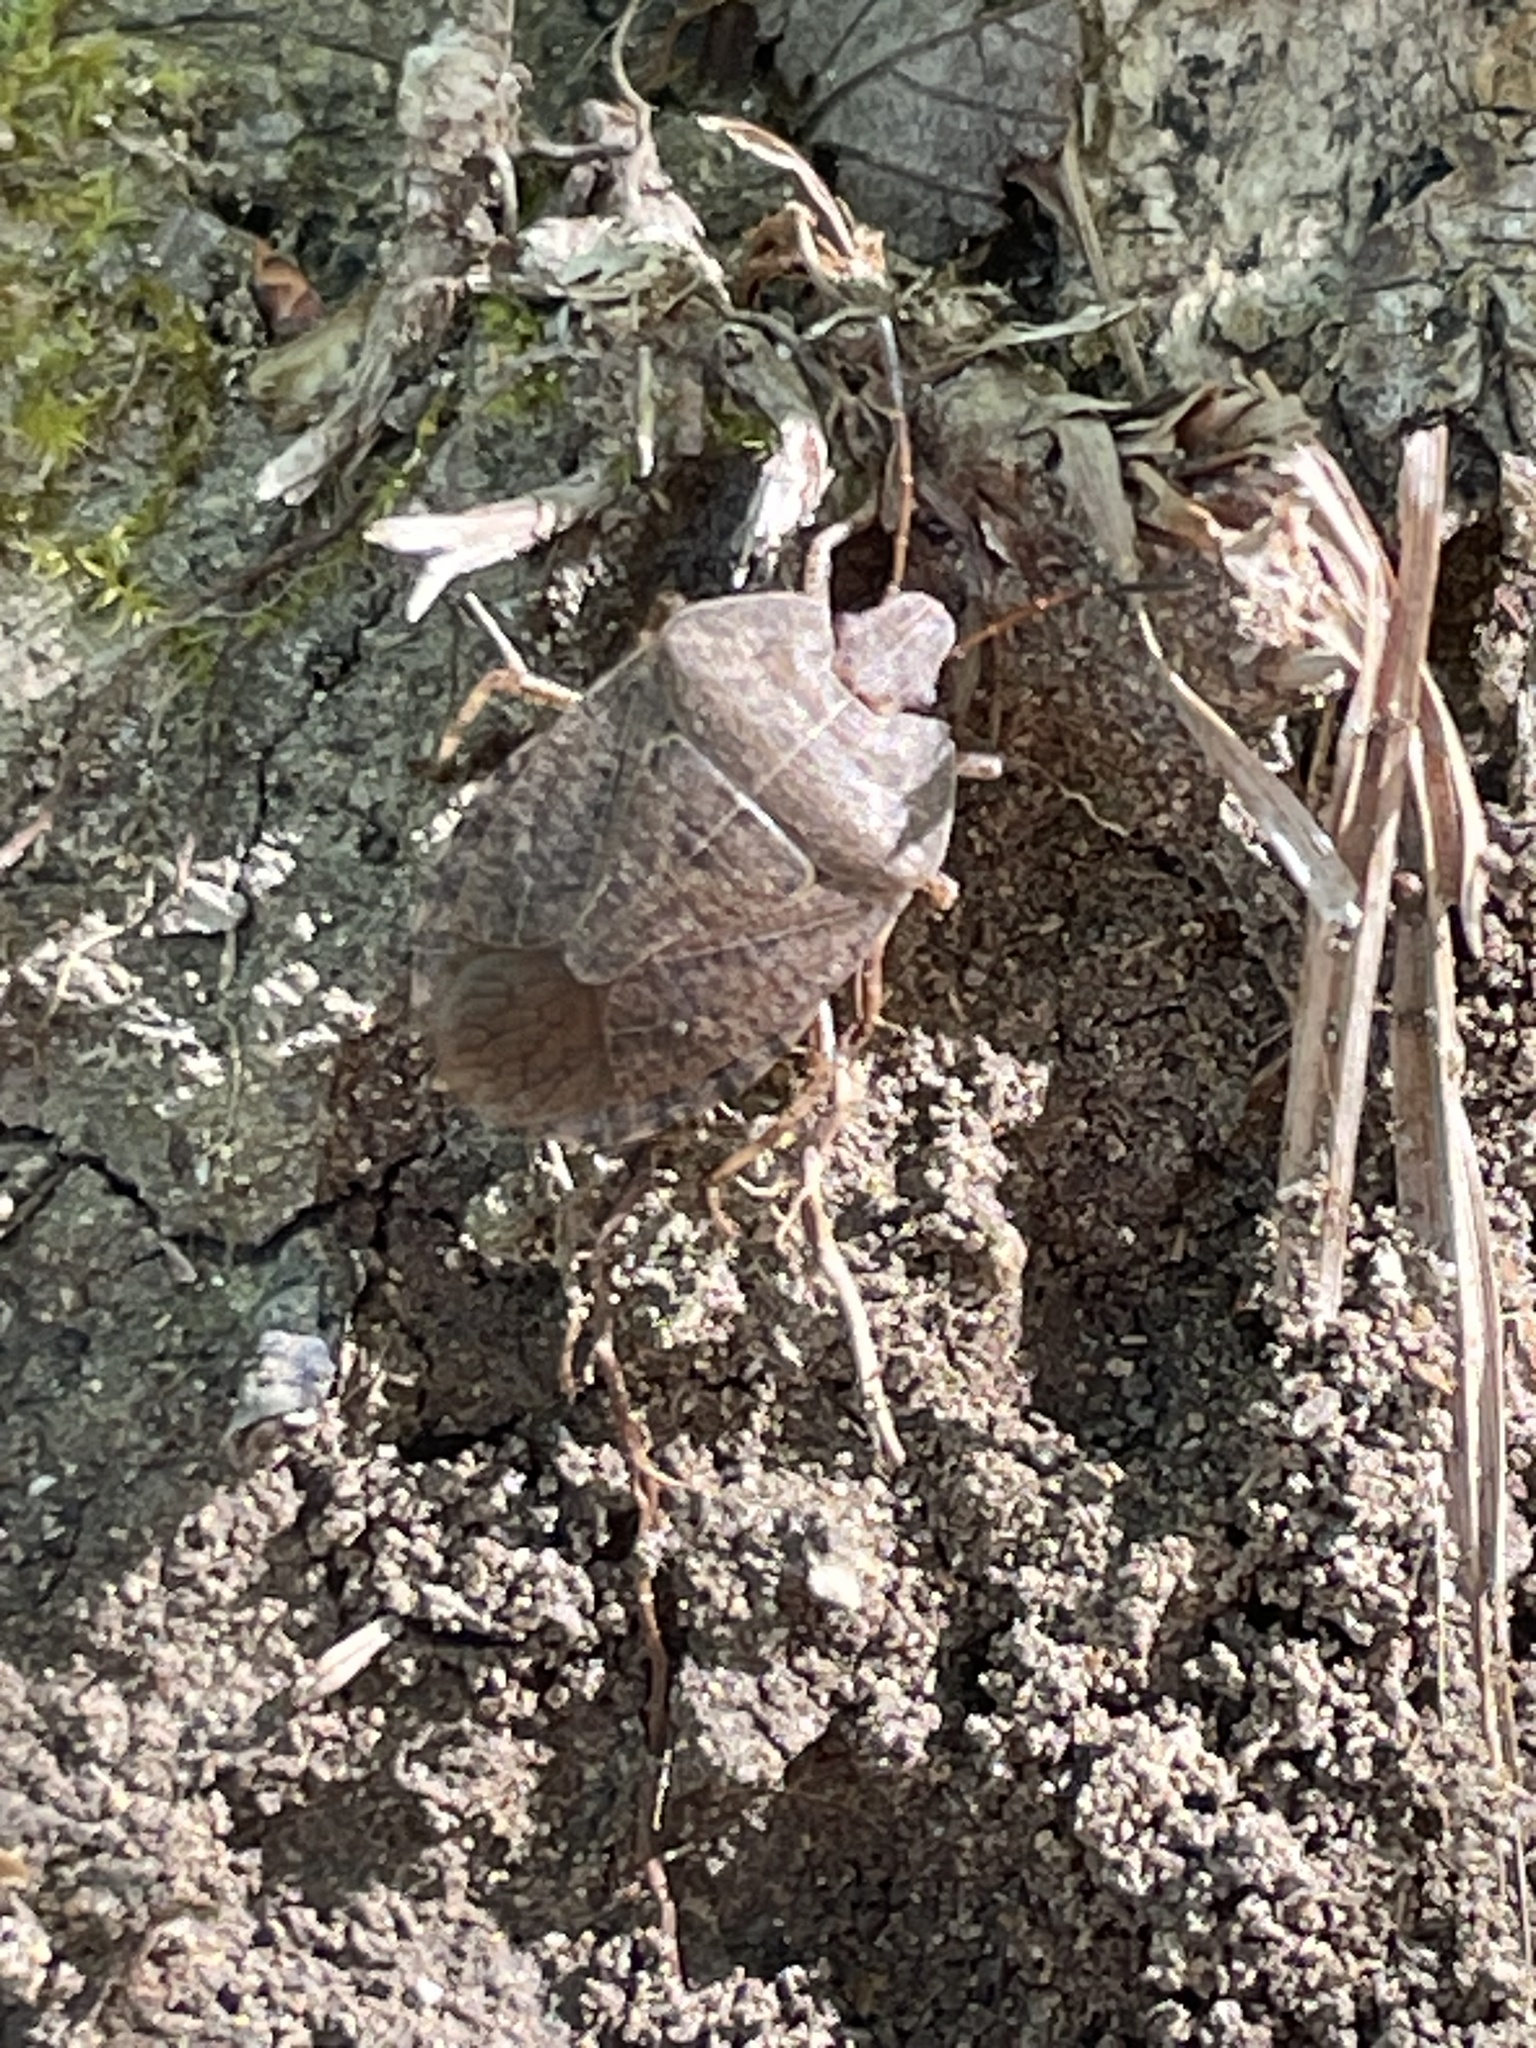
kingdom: Animalia
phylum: Arthropoda
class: Insecta
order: Hemiptera
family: Pentatomidae
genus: Menecles
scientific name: Menecles insertus
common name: Elf shoe stink bug
